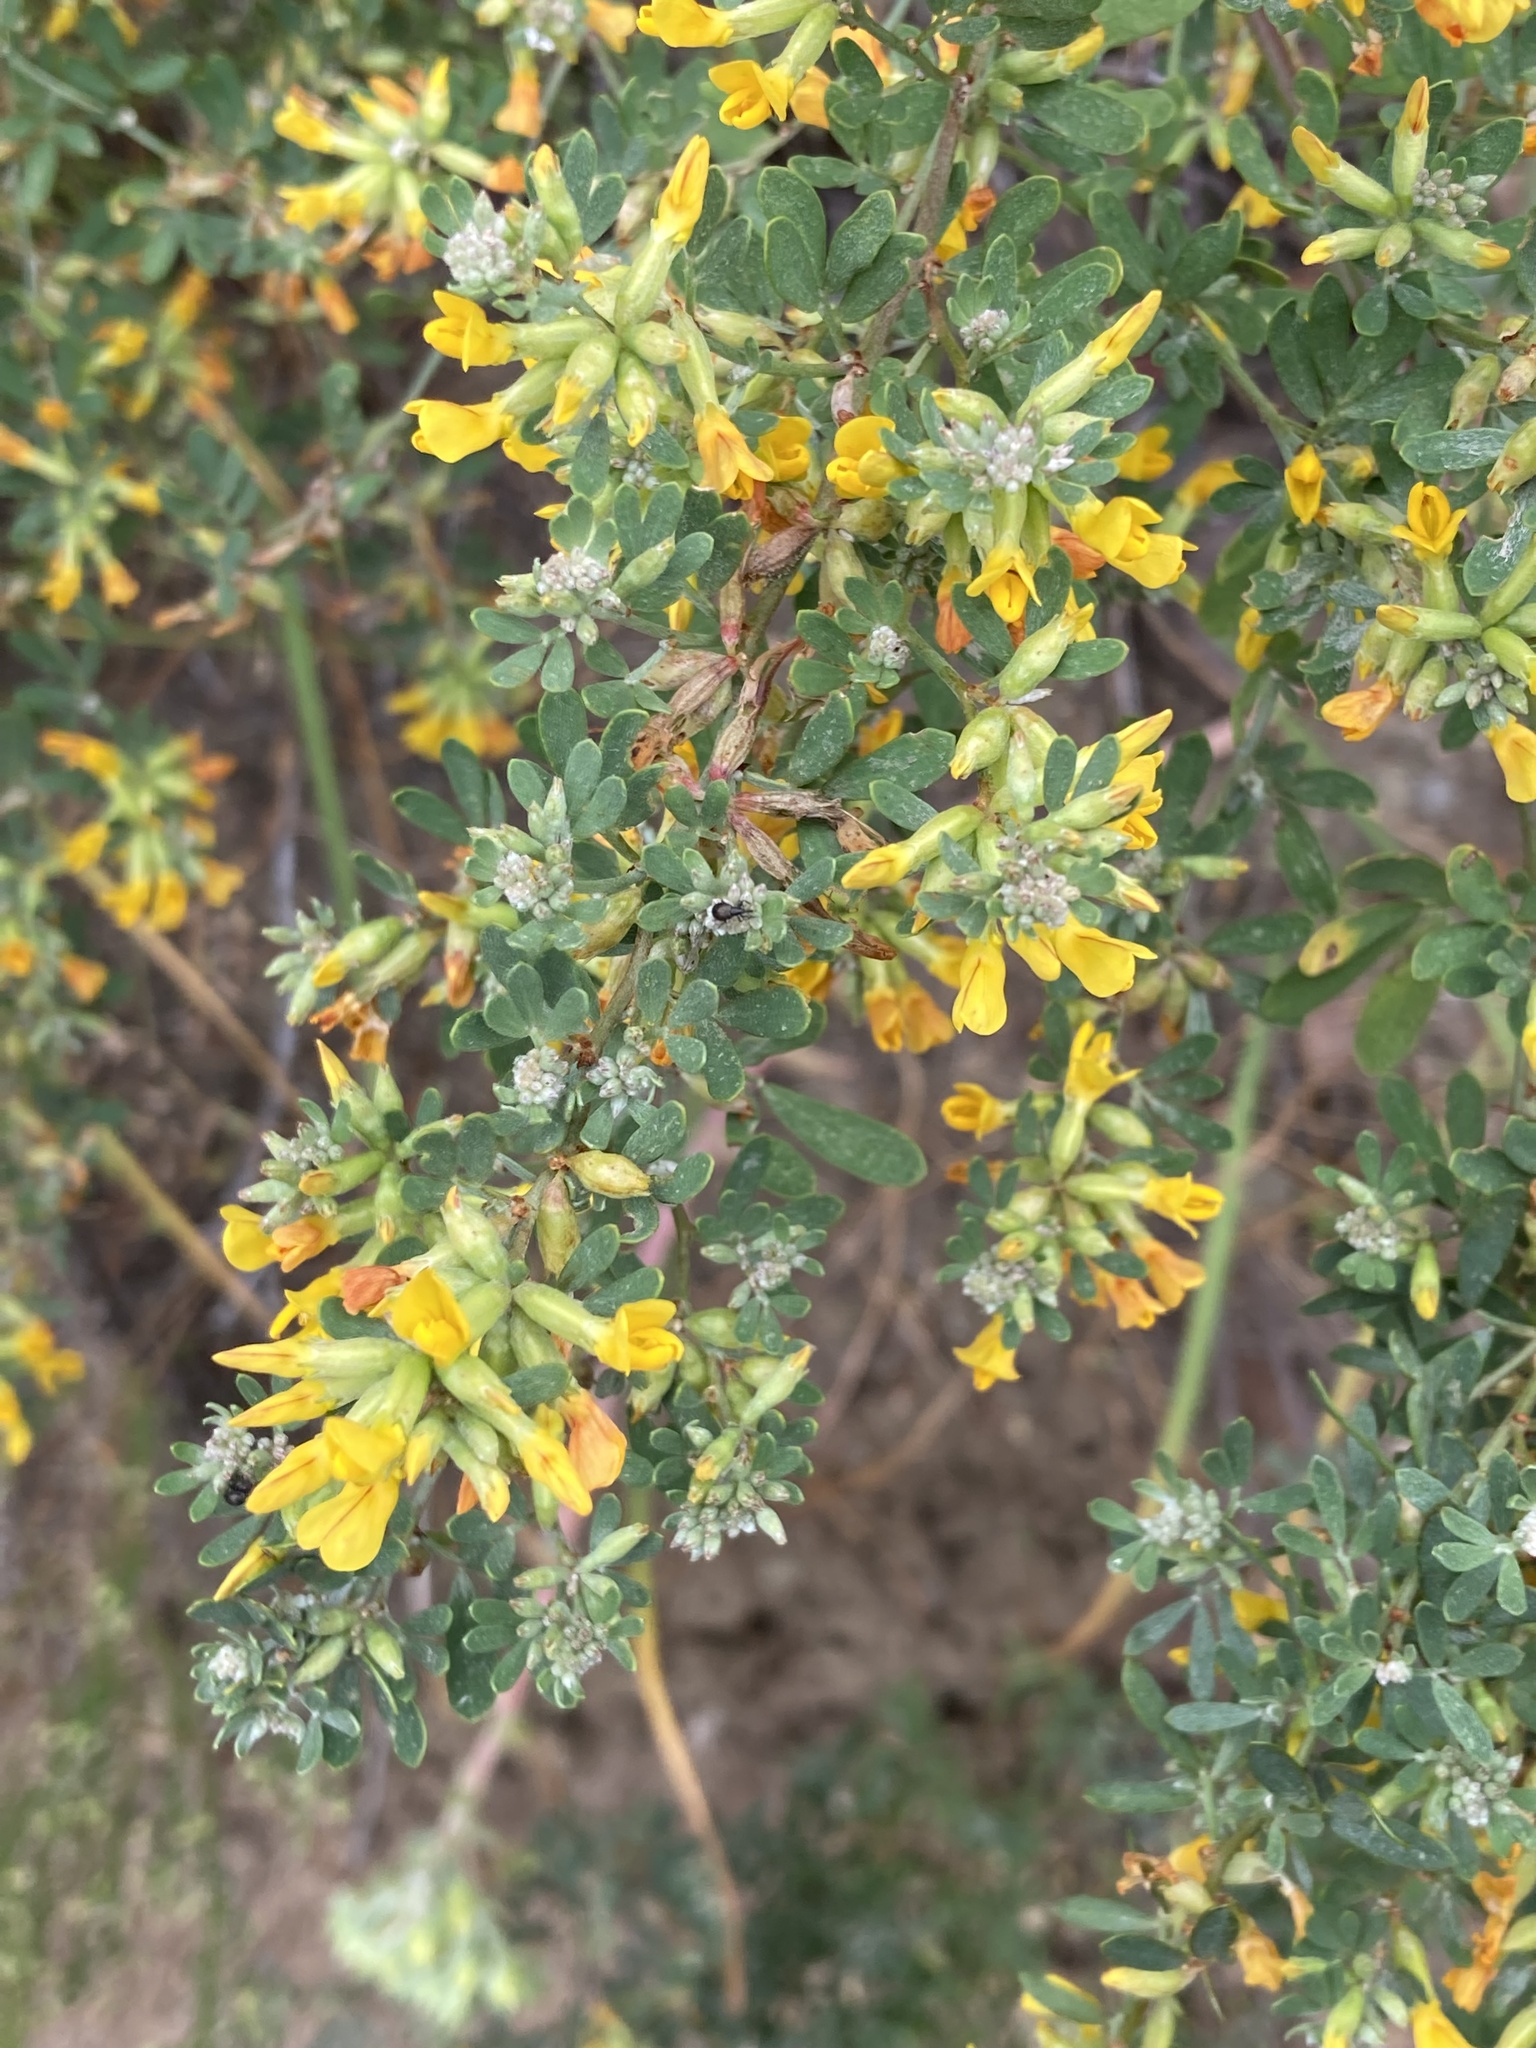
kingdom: Plantae
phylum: Tracheophyta
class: Magnoliopsida
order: Fabales
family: Fabaceae
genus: Acmispon
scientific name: Acmispon dendroideus
